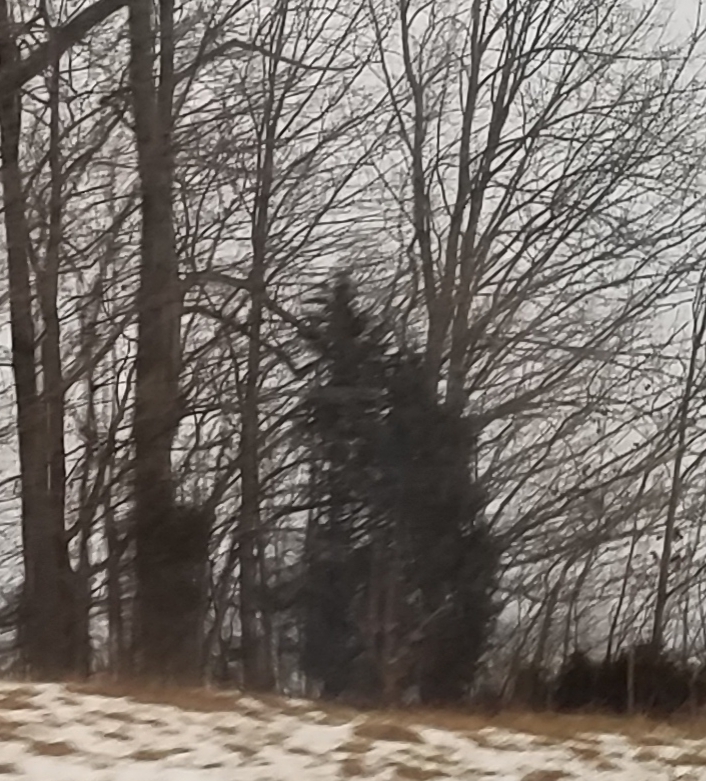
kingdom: Plantae
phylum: Tracheophyta
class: Pinopsida
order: Pinales
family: Cupressaceae
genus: Juniperus
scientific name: Juniperus virginiana
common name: Red juniper
